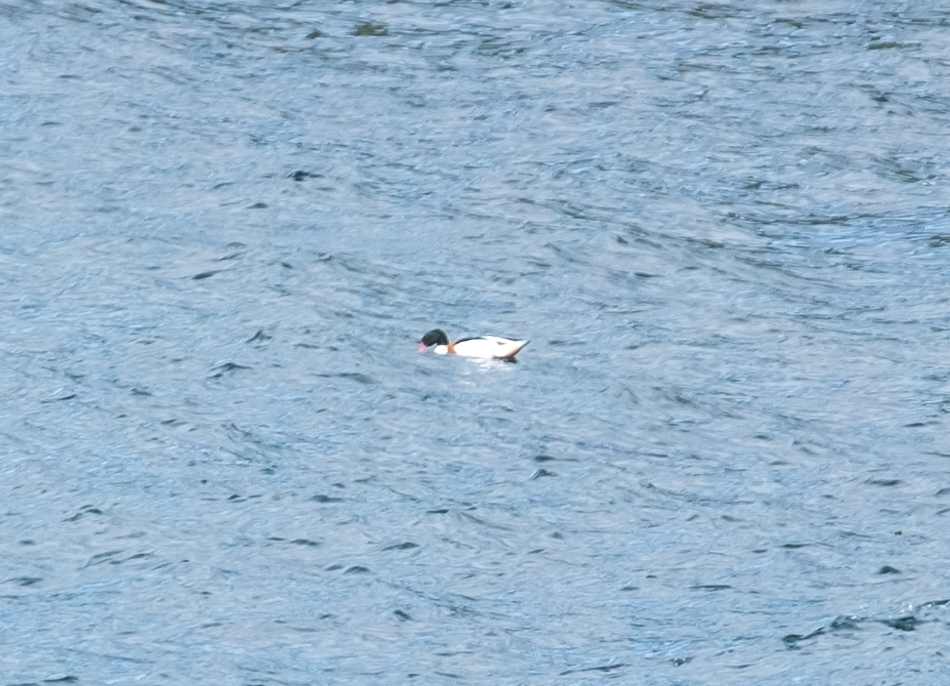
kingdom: Animalia
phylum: Chordata
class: Aves
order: Anseriformes
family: Anatidae
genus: Tadorna
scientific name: Tadorna tadorna
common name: Common shelduck
